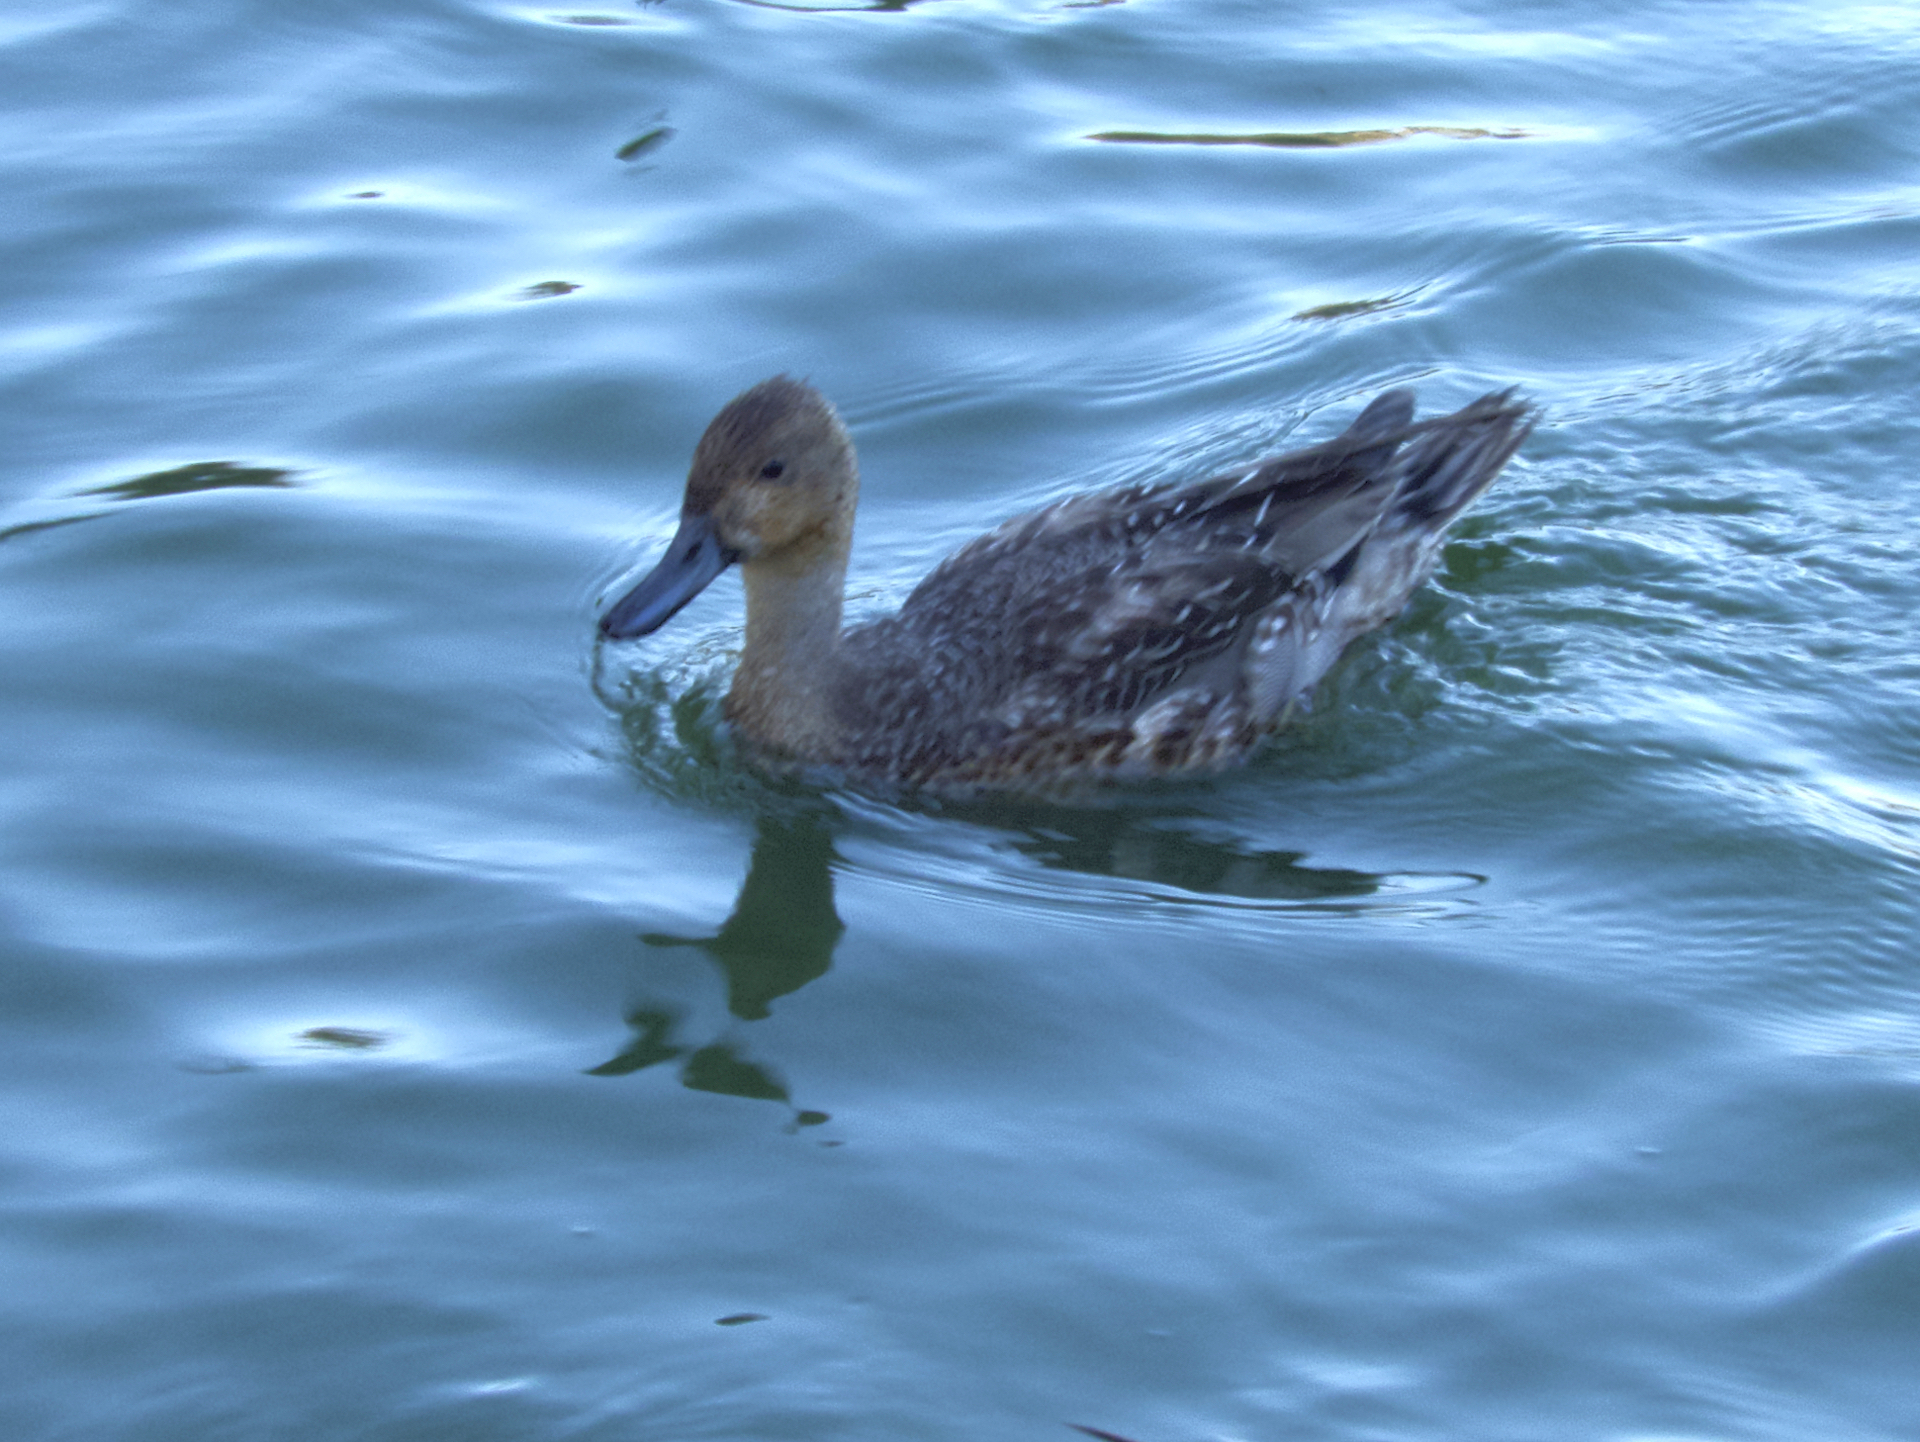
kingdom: Animalia
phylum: Chordata
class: Aves
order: Anseriformes
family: Anatidae
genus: Anas
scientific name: Anas acuta
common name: Northern pintail
